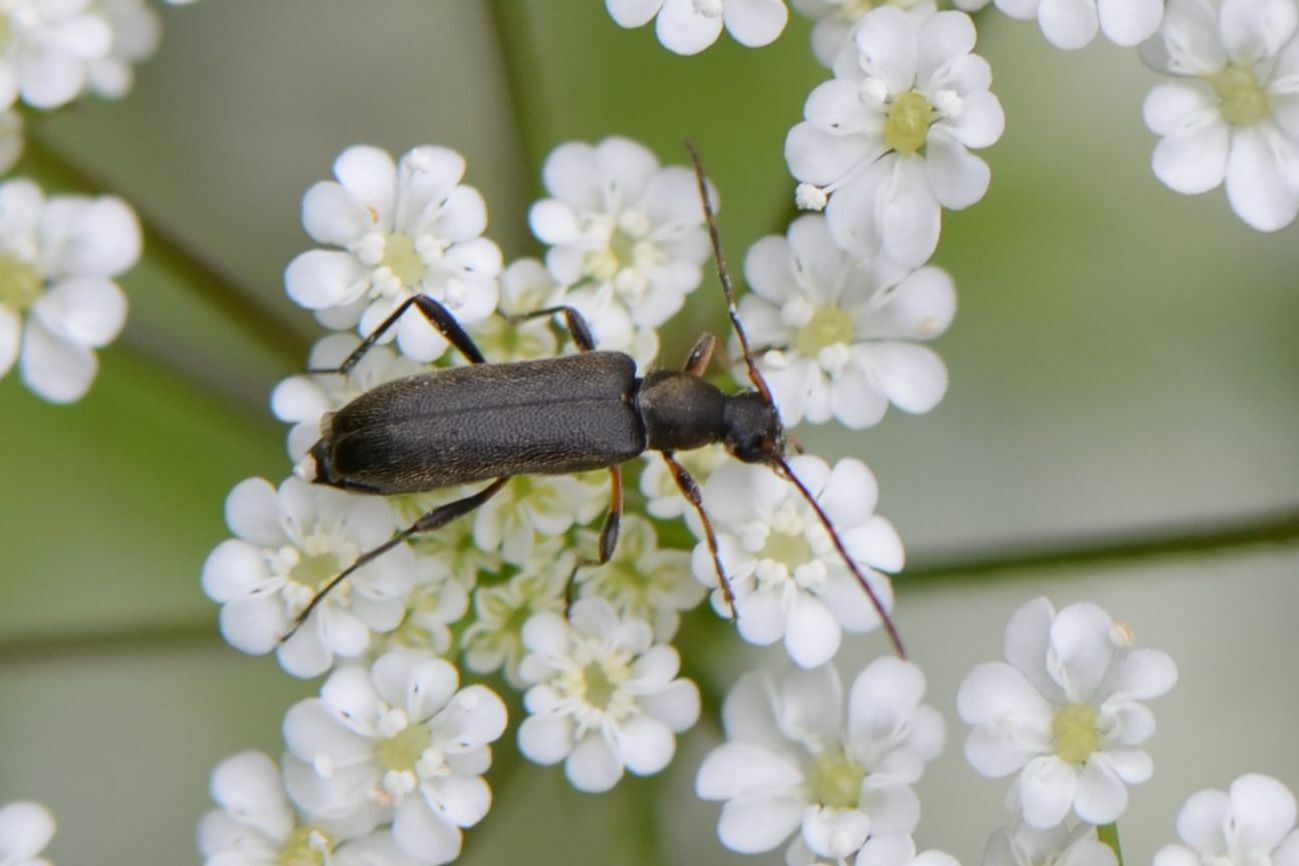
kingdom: Animalia
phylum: Arthropoda
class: Insecta
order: Coleoptera
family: Cerambycidae
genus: Grammoptera
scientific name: Grammoptera ruficornis
